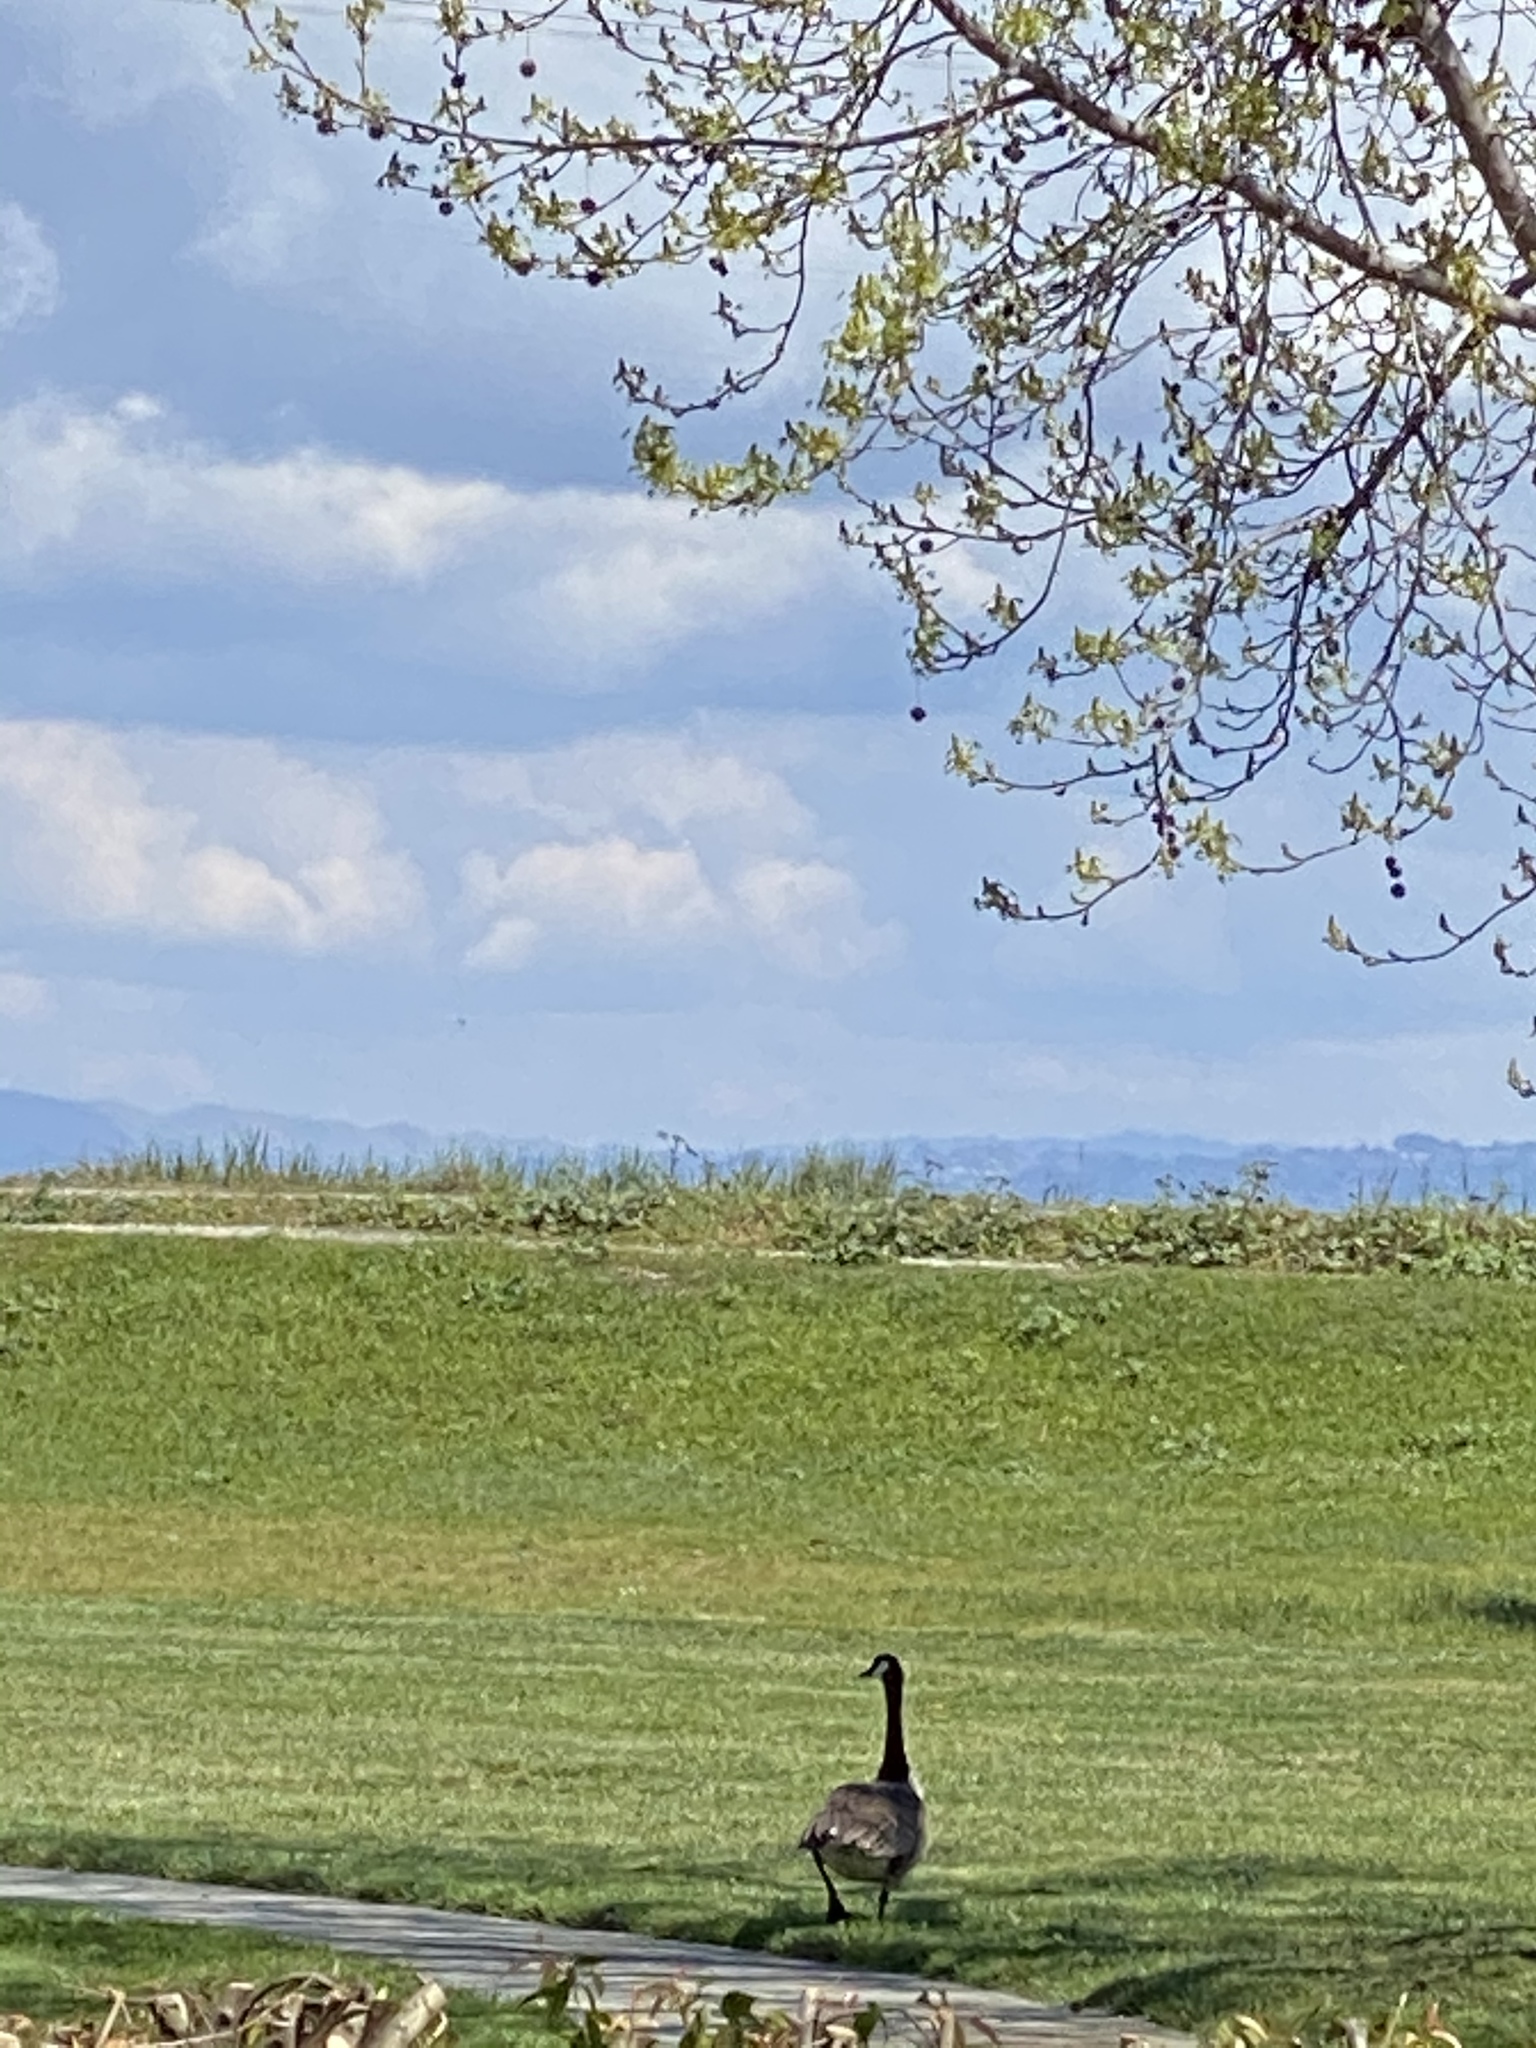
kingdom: Animalia
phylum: Chordata
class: Aves
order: Anseriformes
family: Anatidae
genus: Branta
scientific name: Branta canadensis
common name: Canada goose
